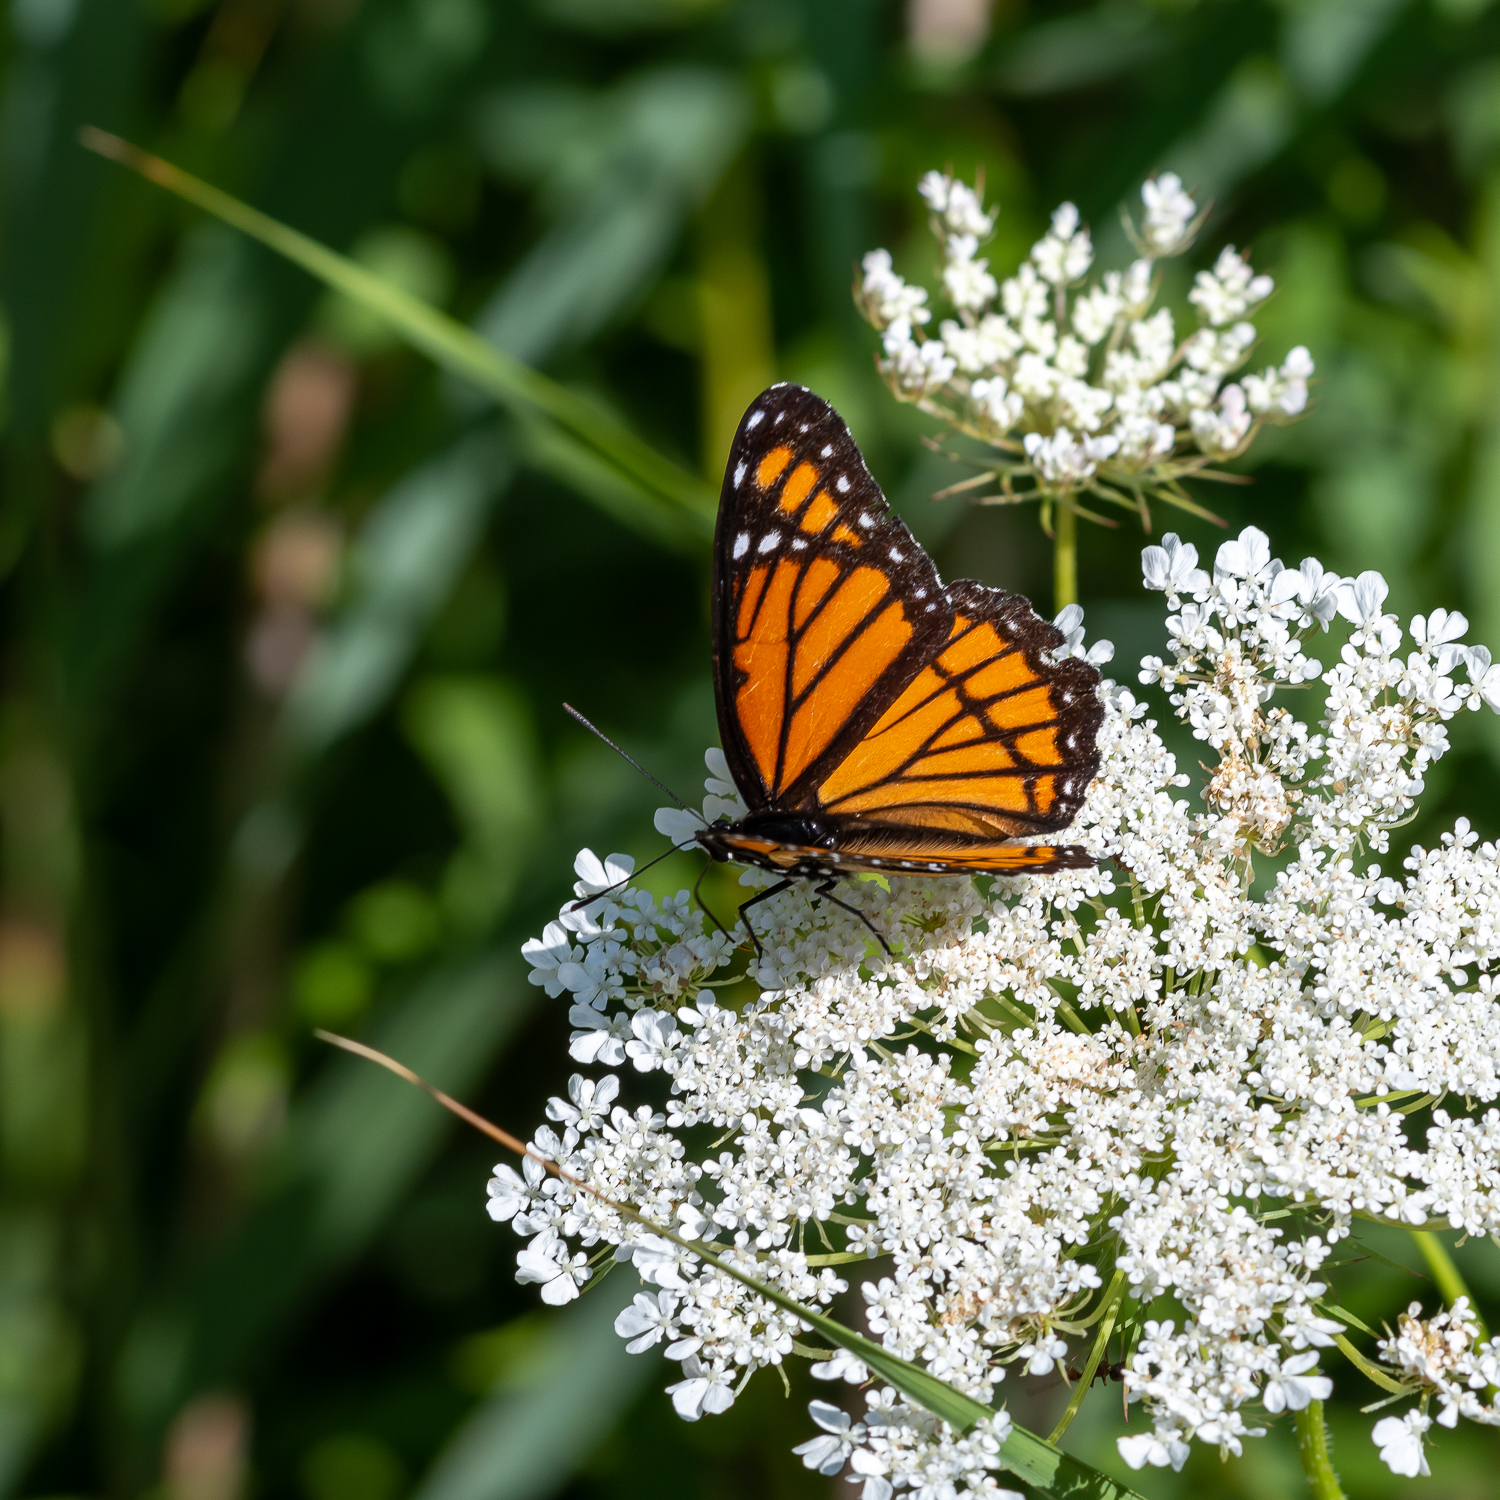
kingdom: Animalia
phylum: Arthropoda
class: Insecta
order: Lepidoptera
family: Nymphalidae
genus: Limenitis
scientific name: Limenitis archippus
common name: Viceroy
